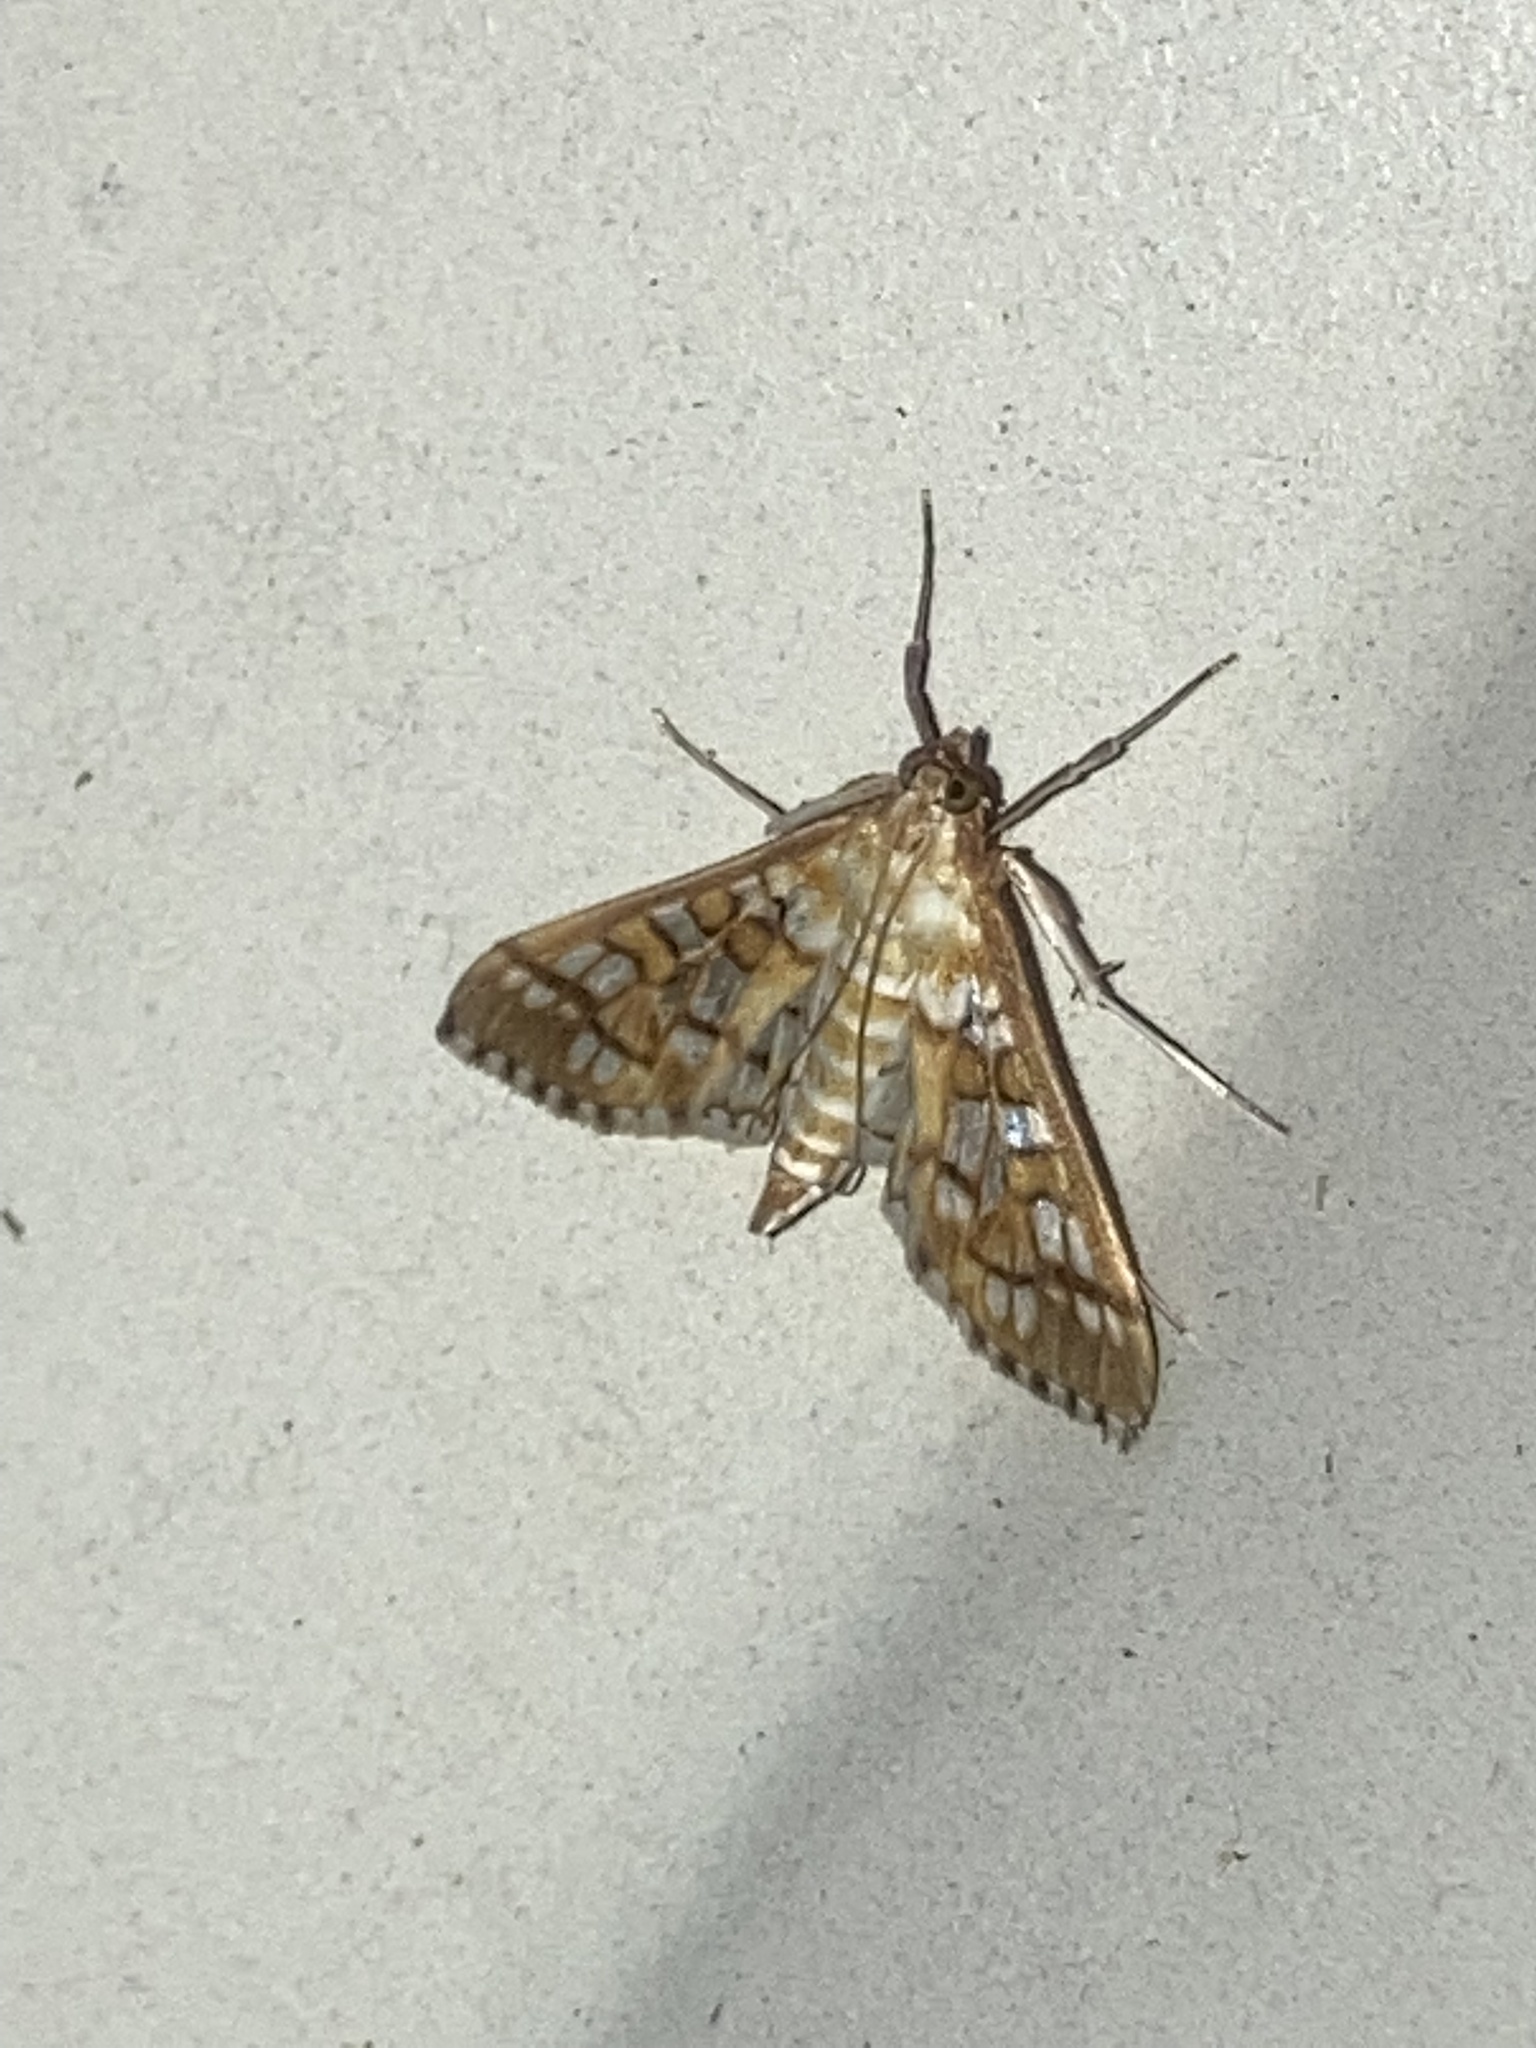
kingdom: Animalia
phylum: Arthropoda
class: Insecta
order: Lepidoptera
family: Crambidae
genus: Epipagis
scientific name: Epipagis fenestralis
